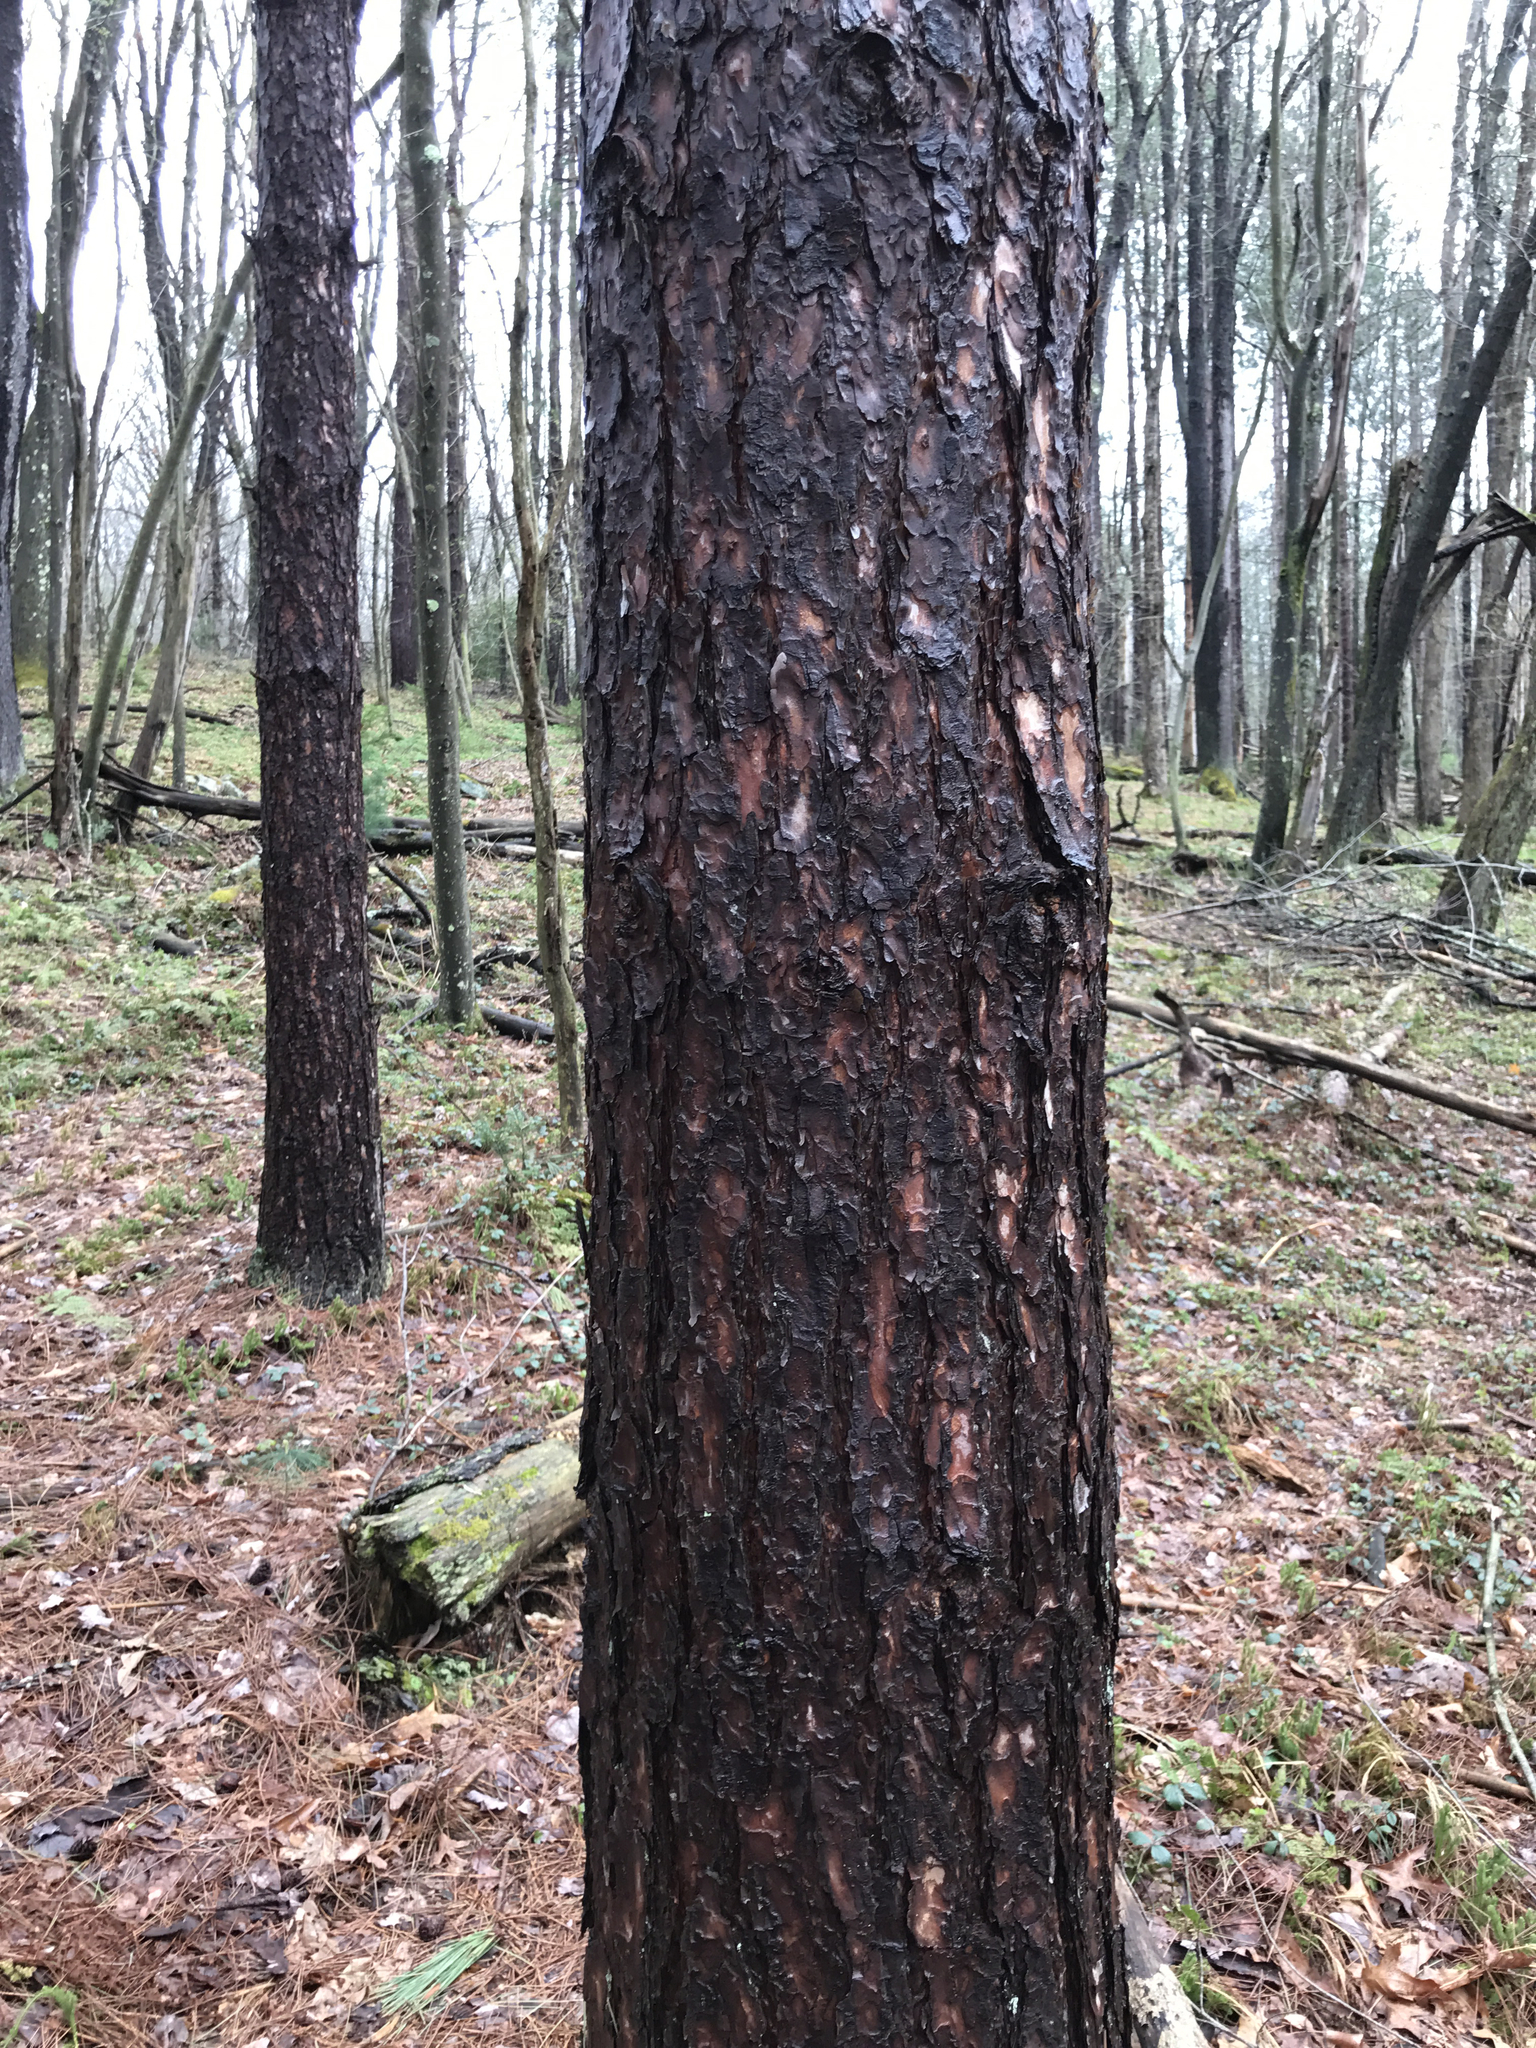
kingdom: Plantae
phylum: Tracheophyta
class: Pinopsida
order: Pinales
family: Pinaceae
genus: Pinus
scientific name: Pinus resinosa
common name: Norway pine
